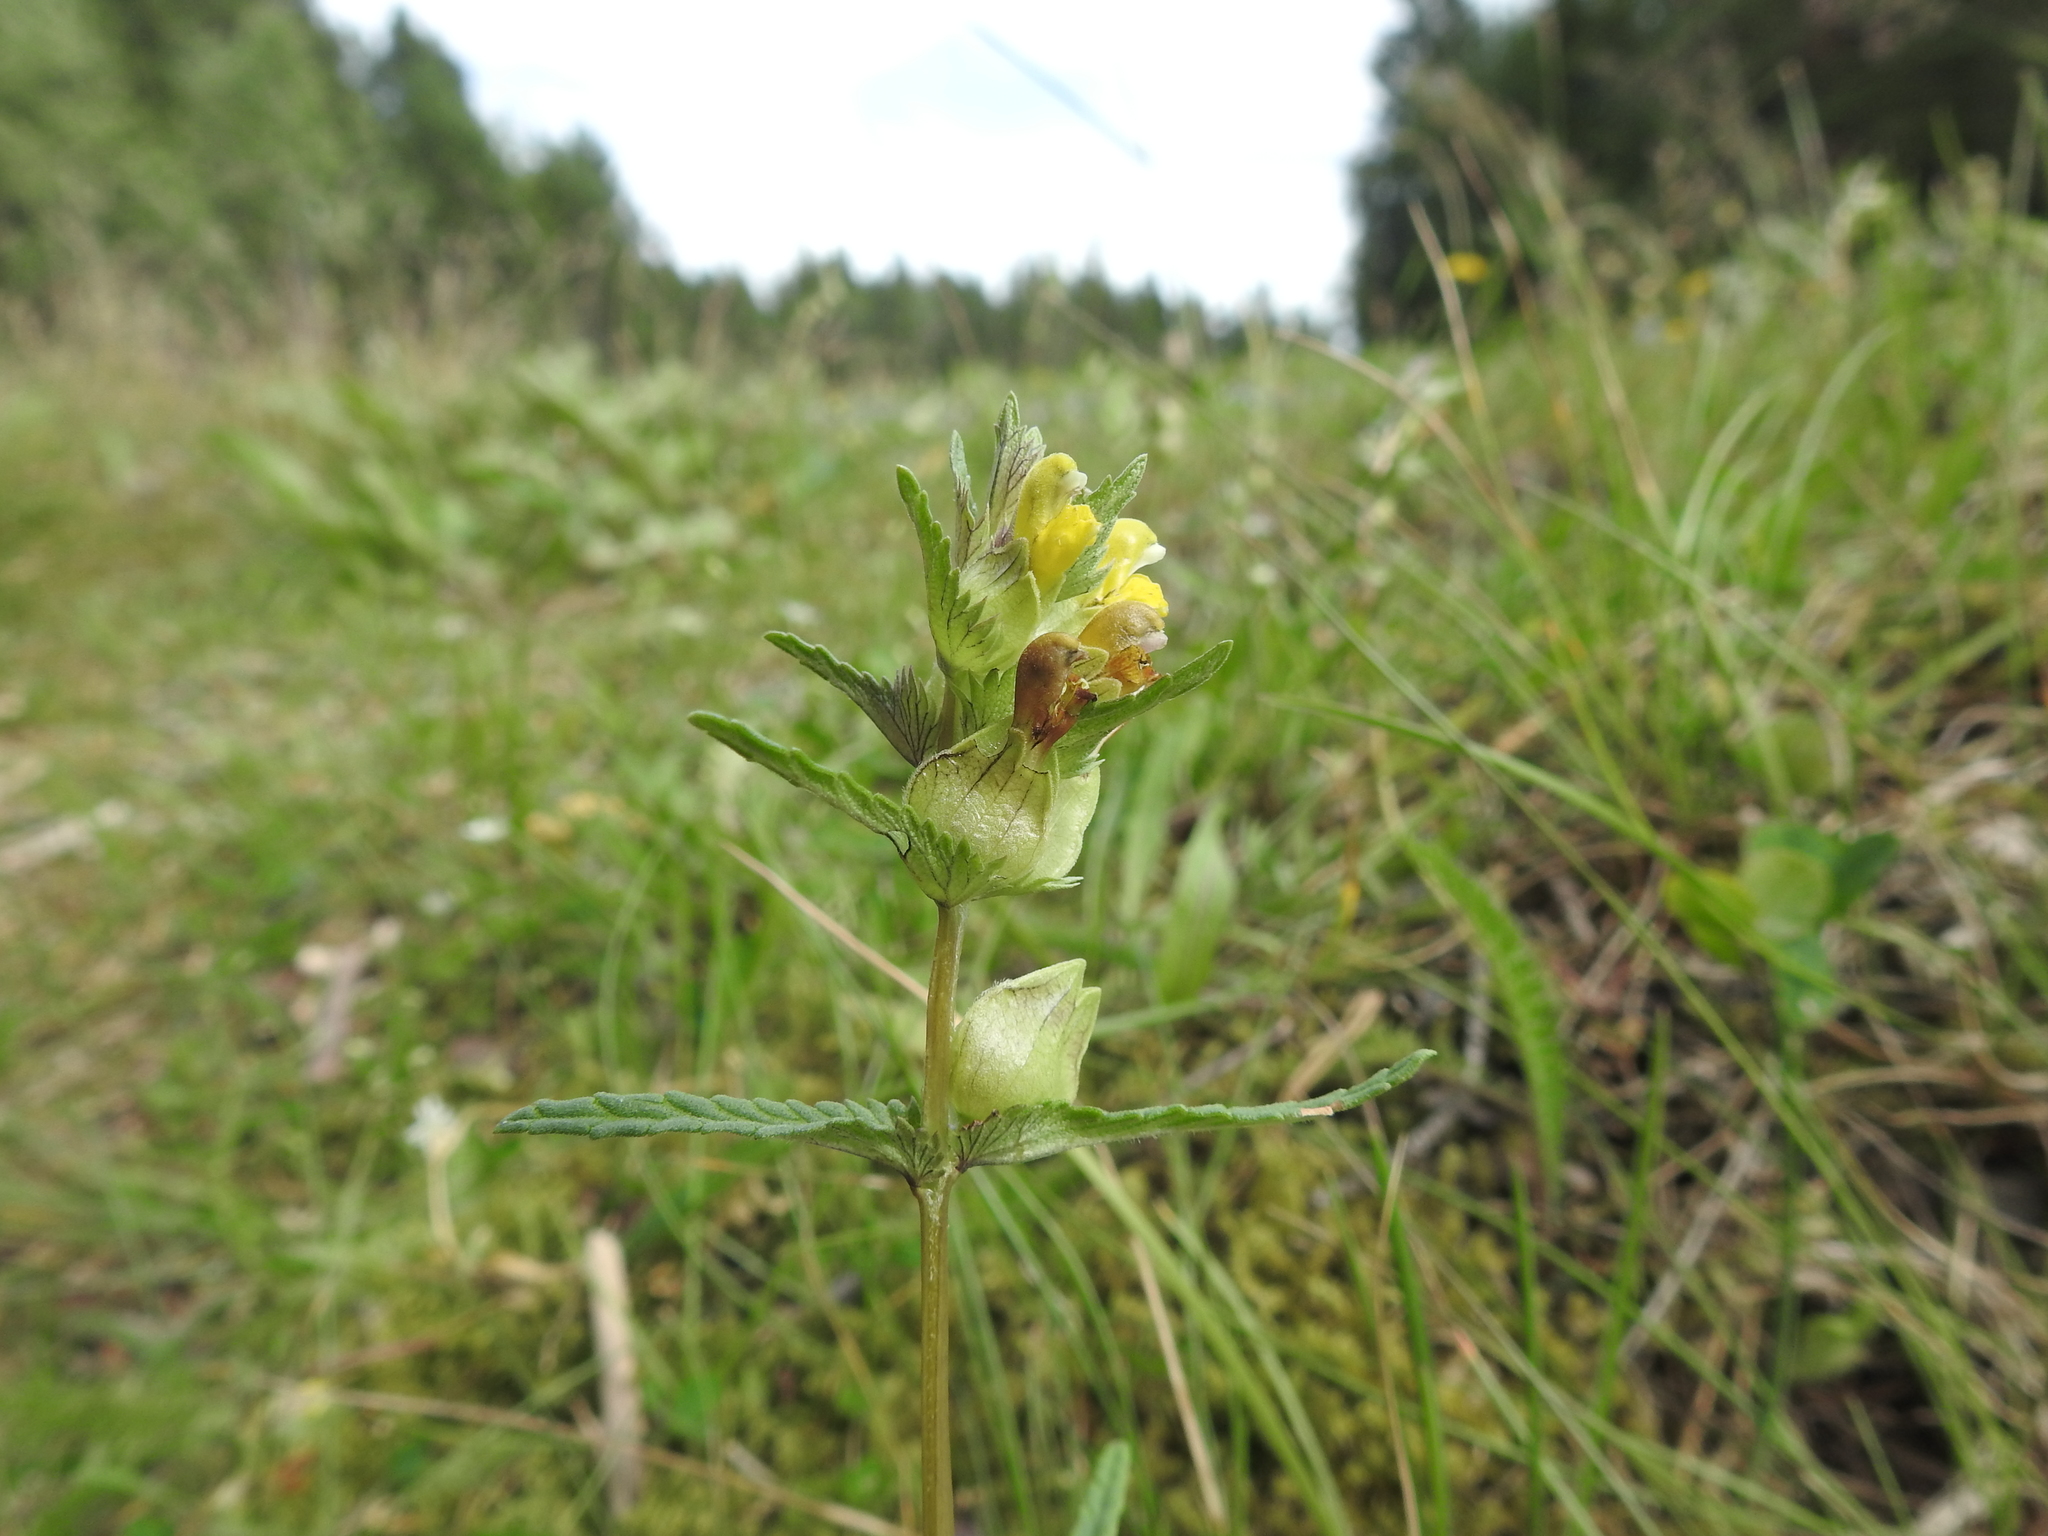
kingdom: Plantae
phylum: Tracheophyta
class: Magnoliopsida
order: Lamiales
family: Orobanchaceae
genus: Rhinanthus
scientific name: Rhinanthus minor
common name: Yellow-rattle
